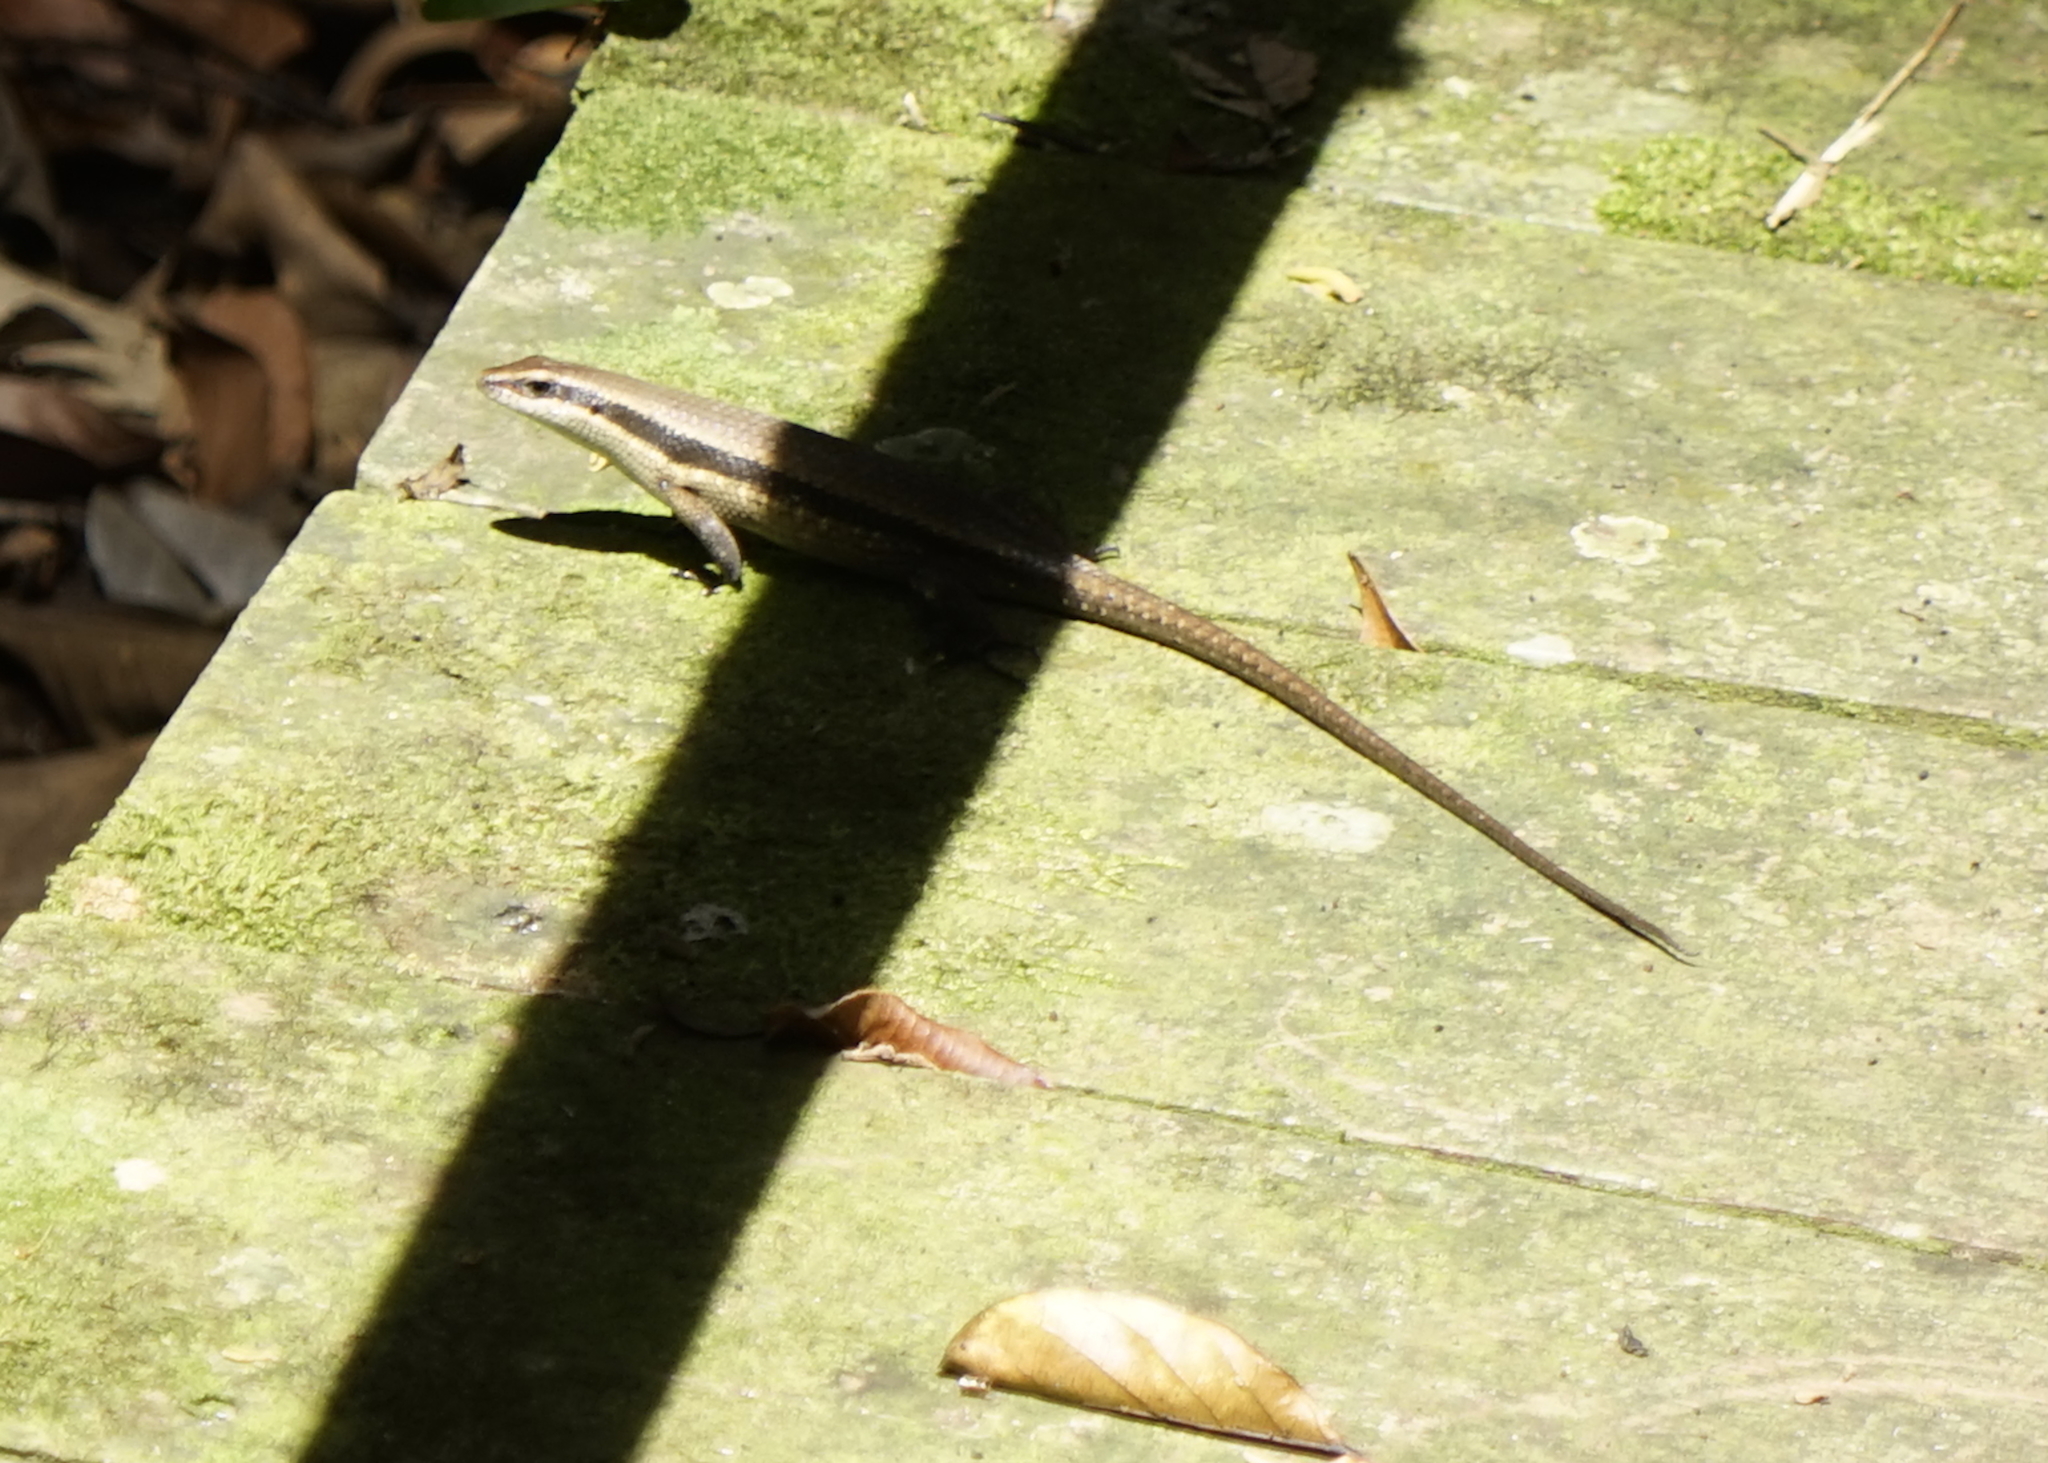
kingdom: Animalia
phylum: Chordata
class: Squamata
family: Scincidae
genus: Eutropis
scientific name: Eutropis rudis
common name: Rough mabuya
